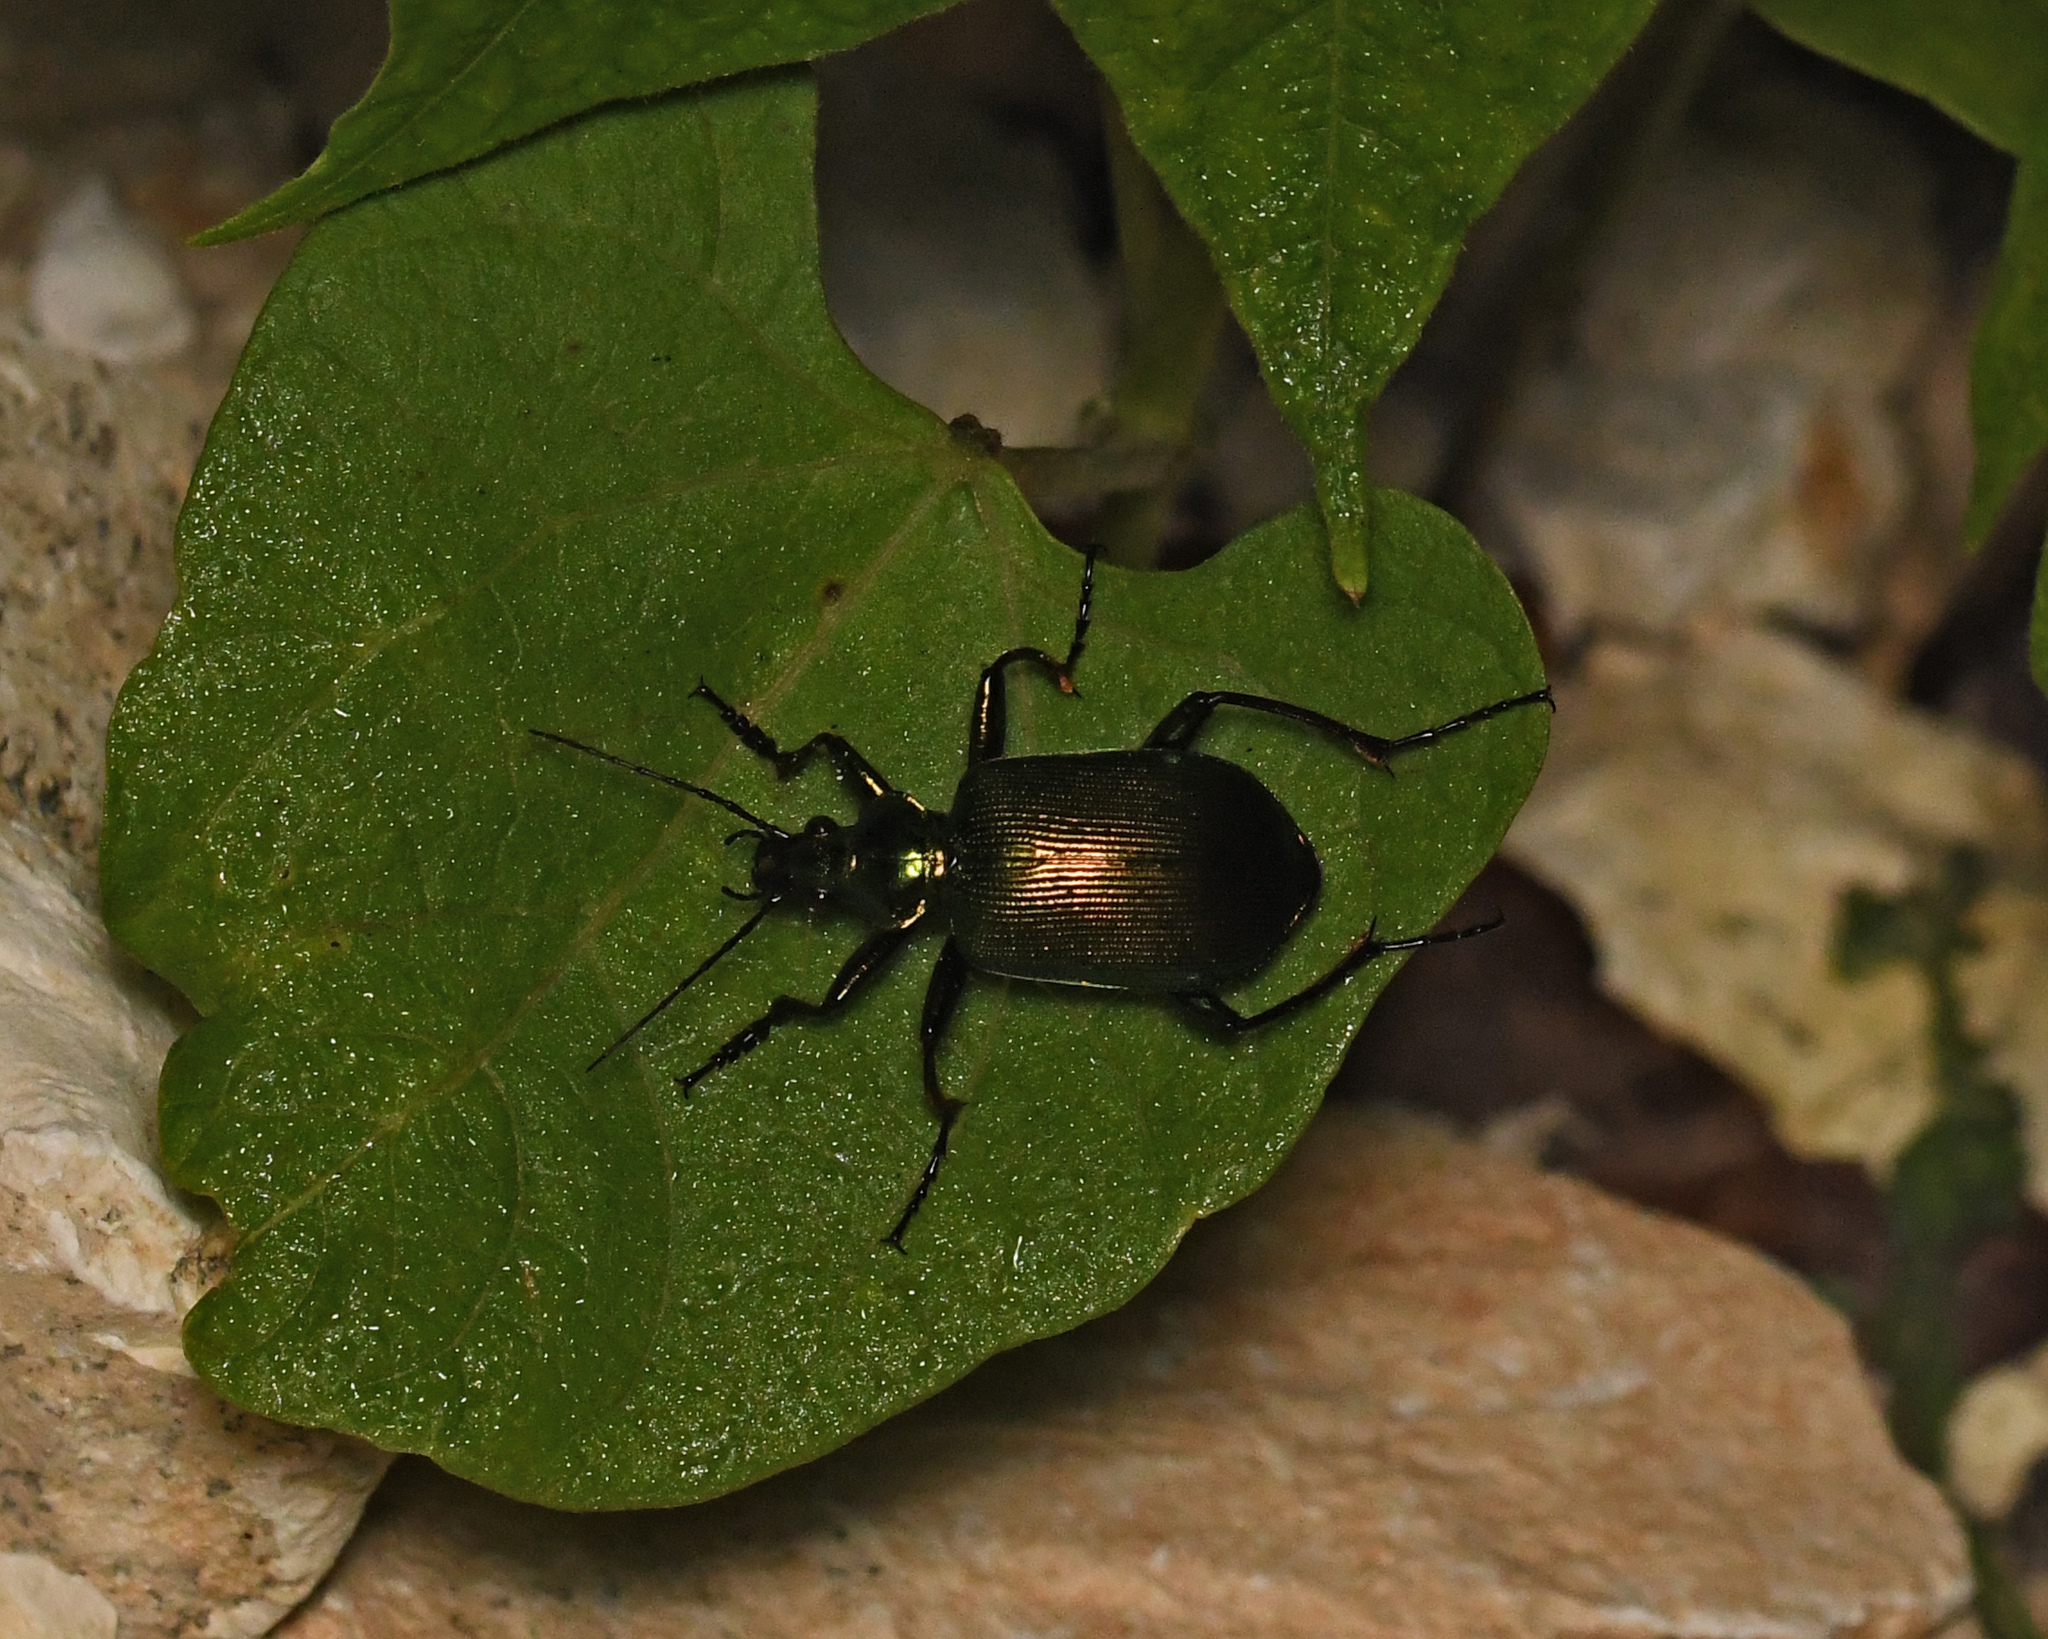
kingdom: Animalia
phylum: Arthropoda
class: Insecta
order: Coleoptera
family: Carabidae
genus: Calosoma
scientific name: Calosoma splendidum
